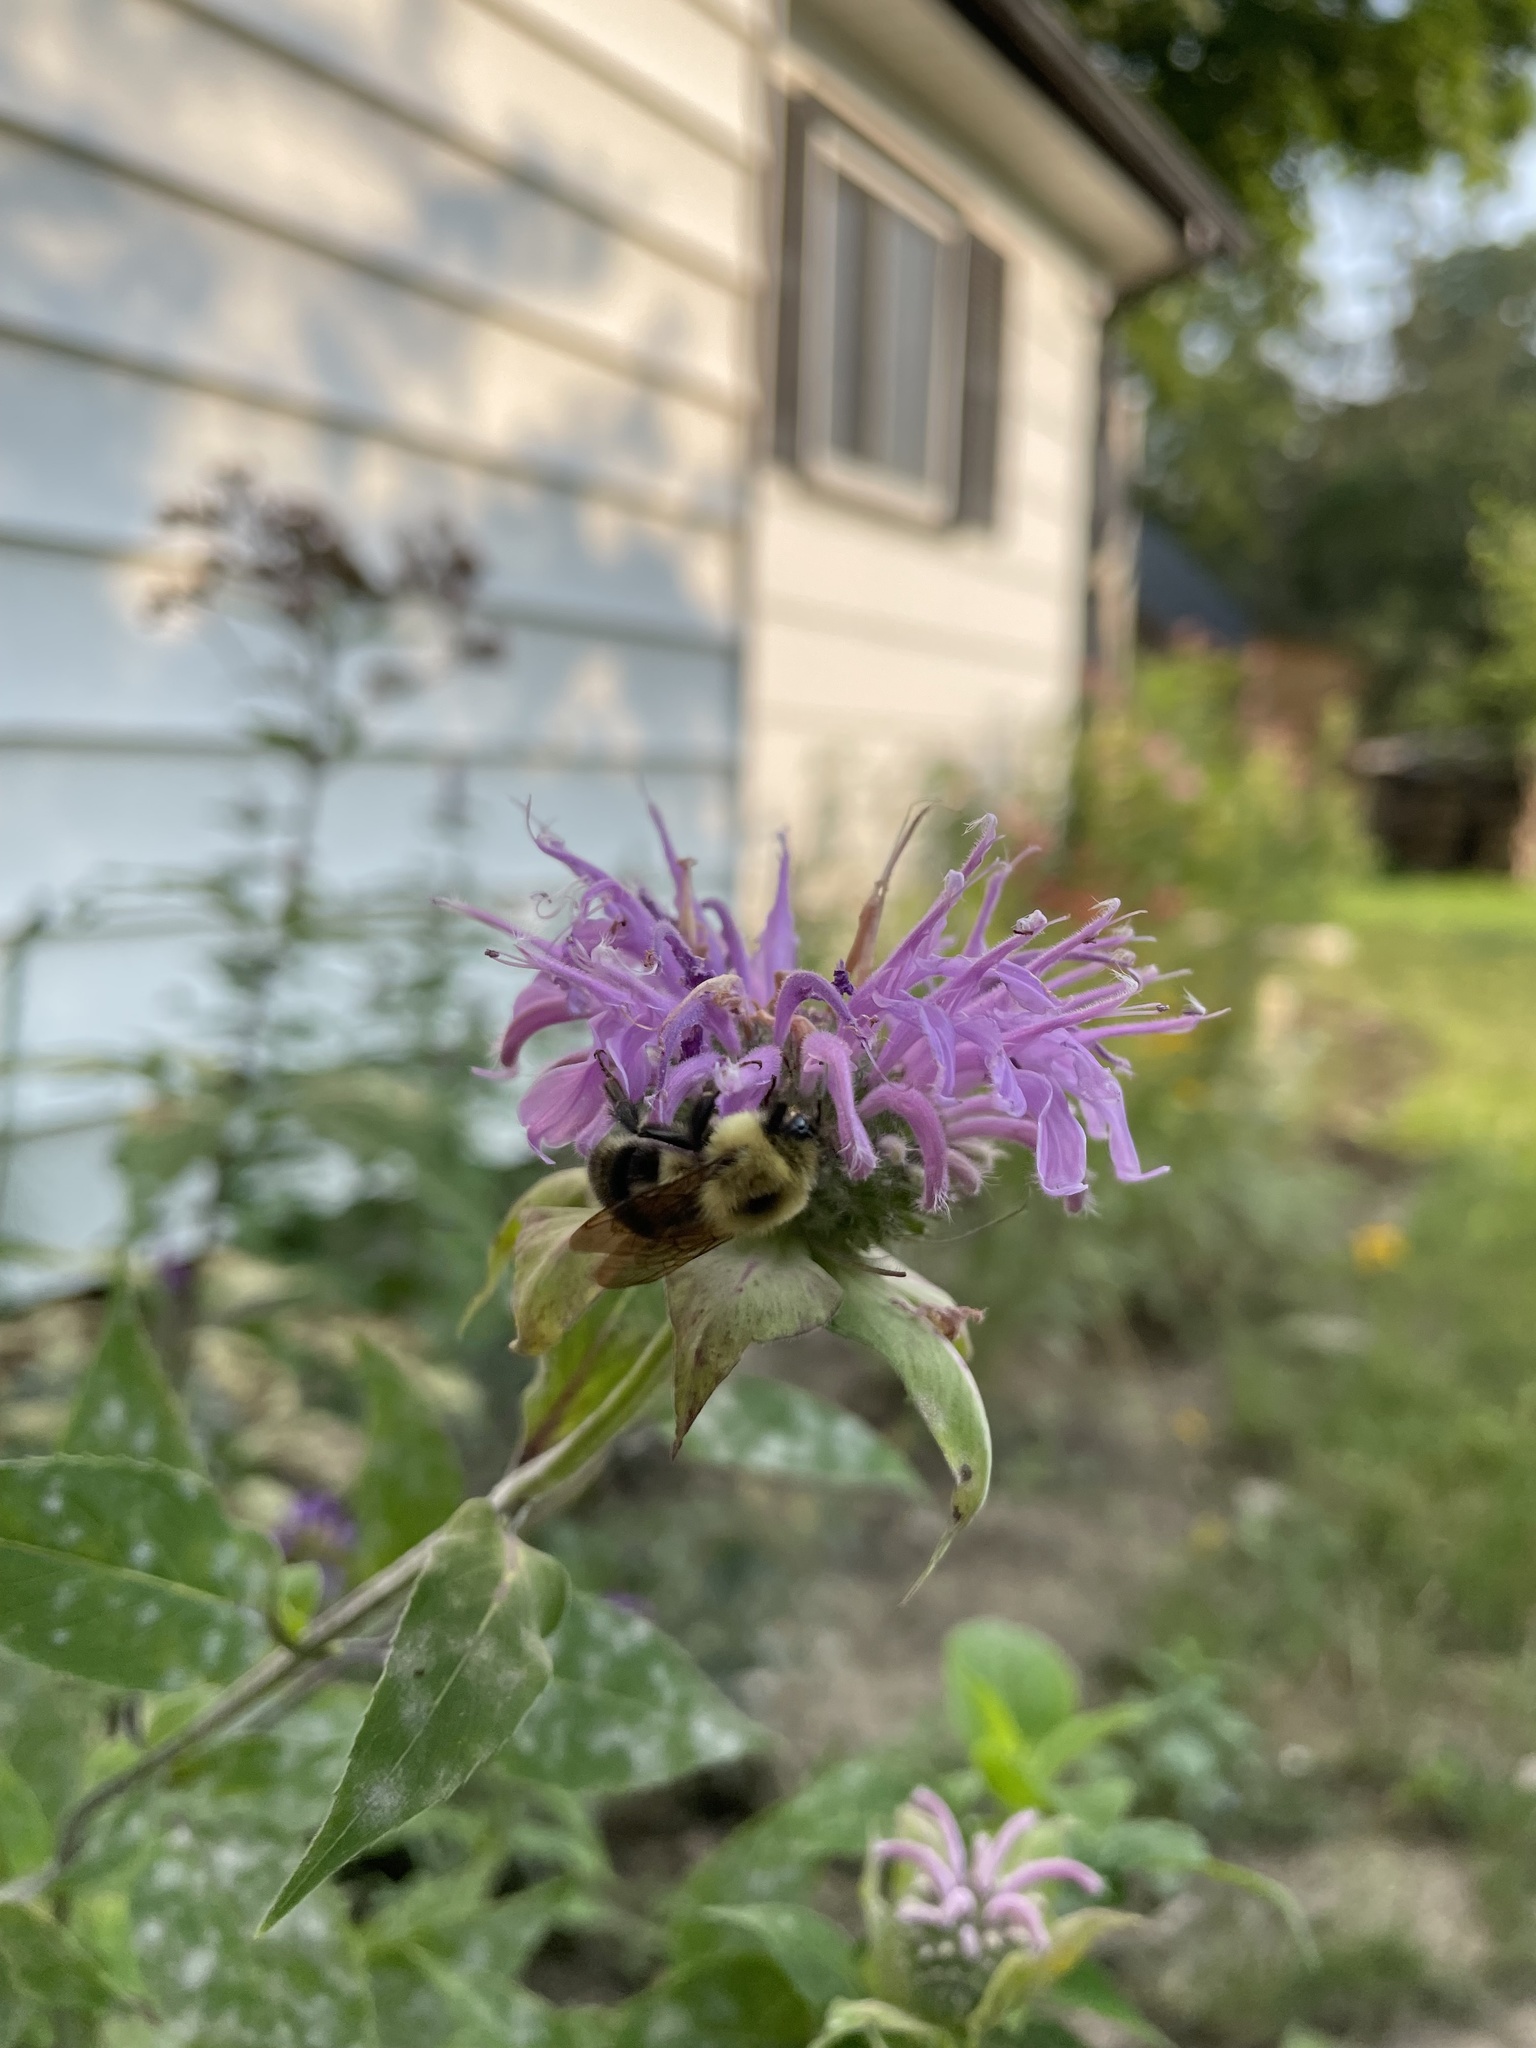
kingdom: Animalia
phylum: Arthropoda
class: Insecta
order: Hymenoptera
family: Apidae
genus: Bombus
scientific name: Bombus bimaculatus
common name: Two-spotted bumble bee
